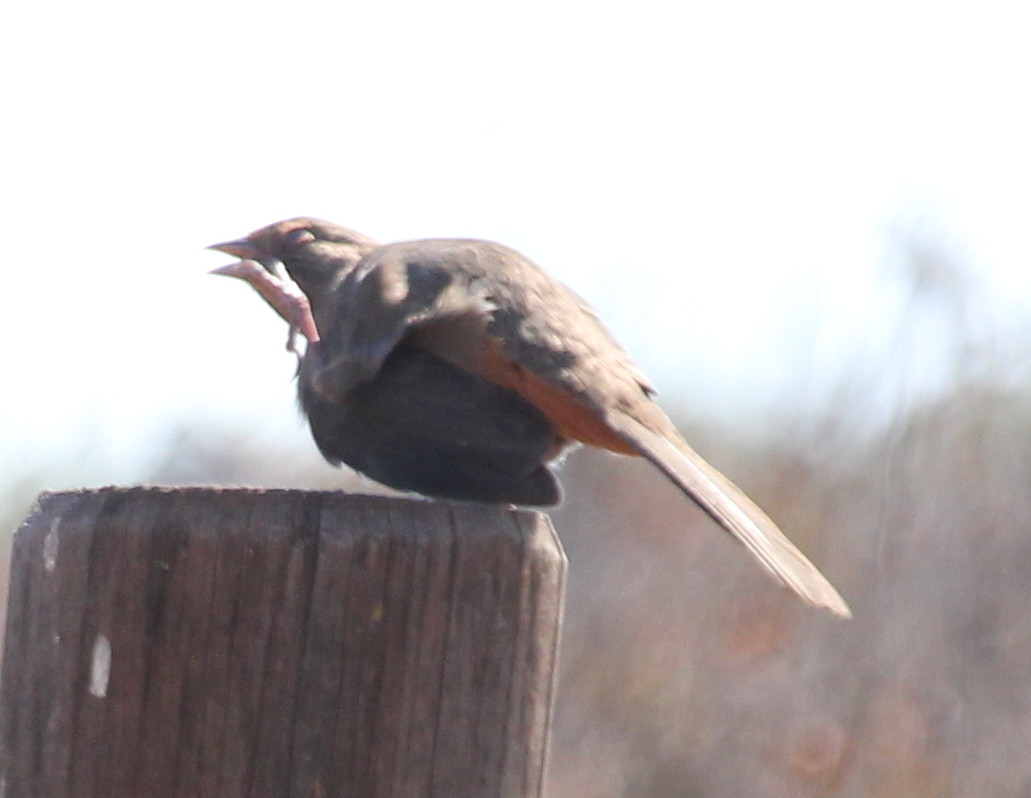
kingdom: Animalia
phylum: Chordata
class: Aves
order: Passeriformes
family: Passerellidae
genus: Melozone
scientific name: Melozone crissalis
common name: California towhee
